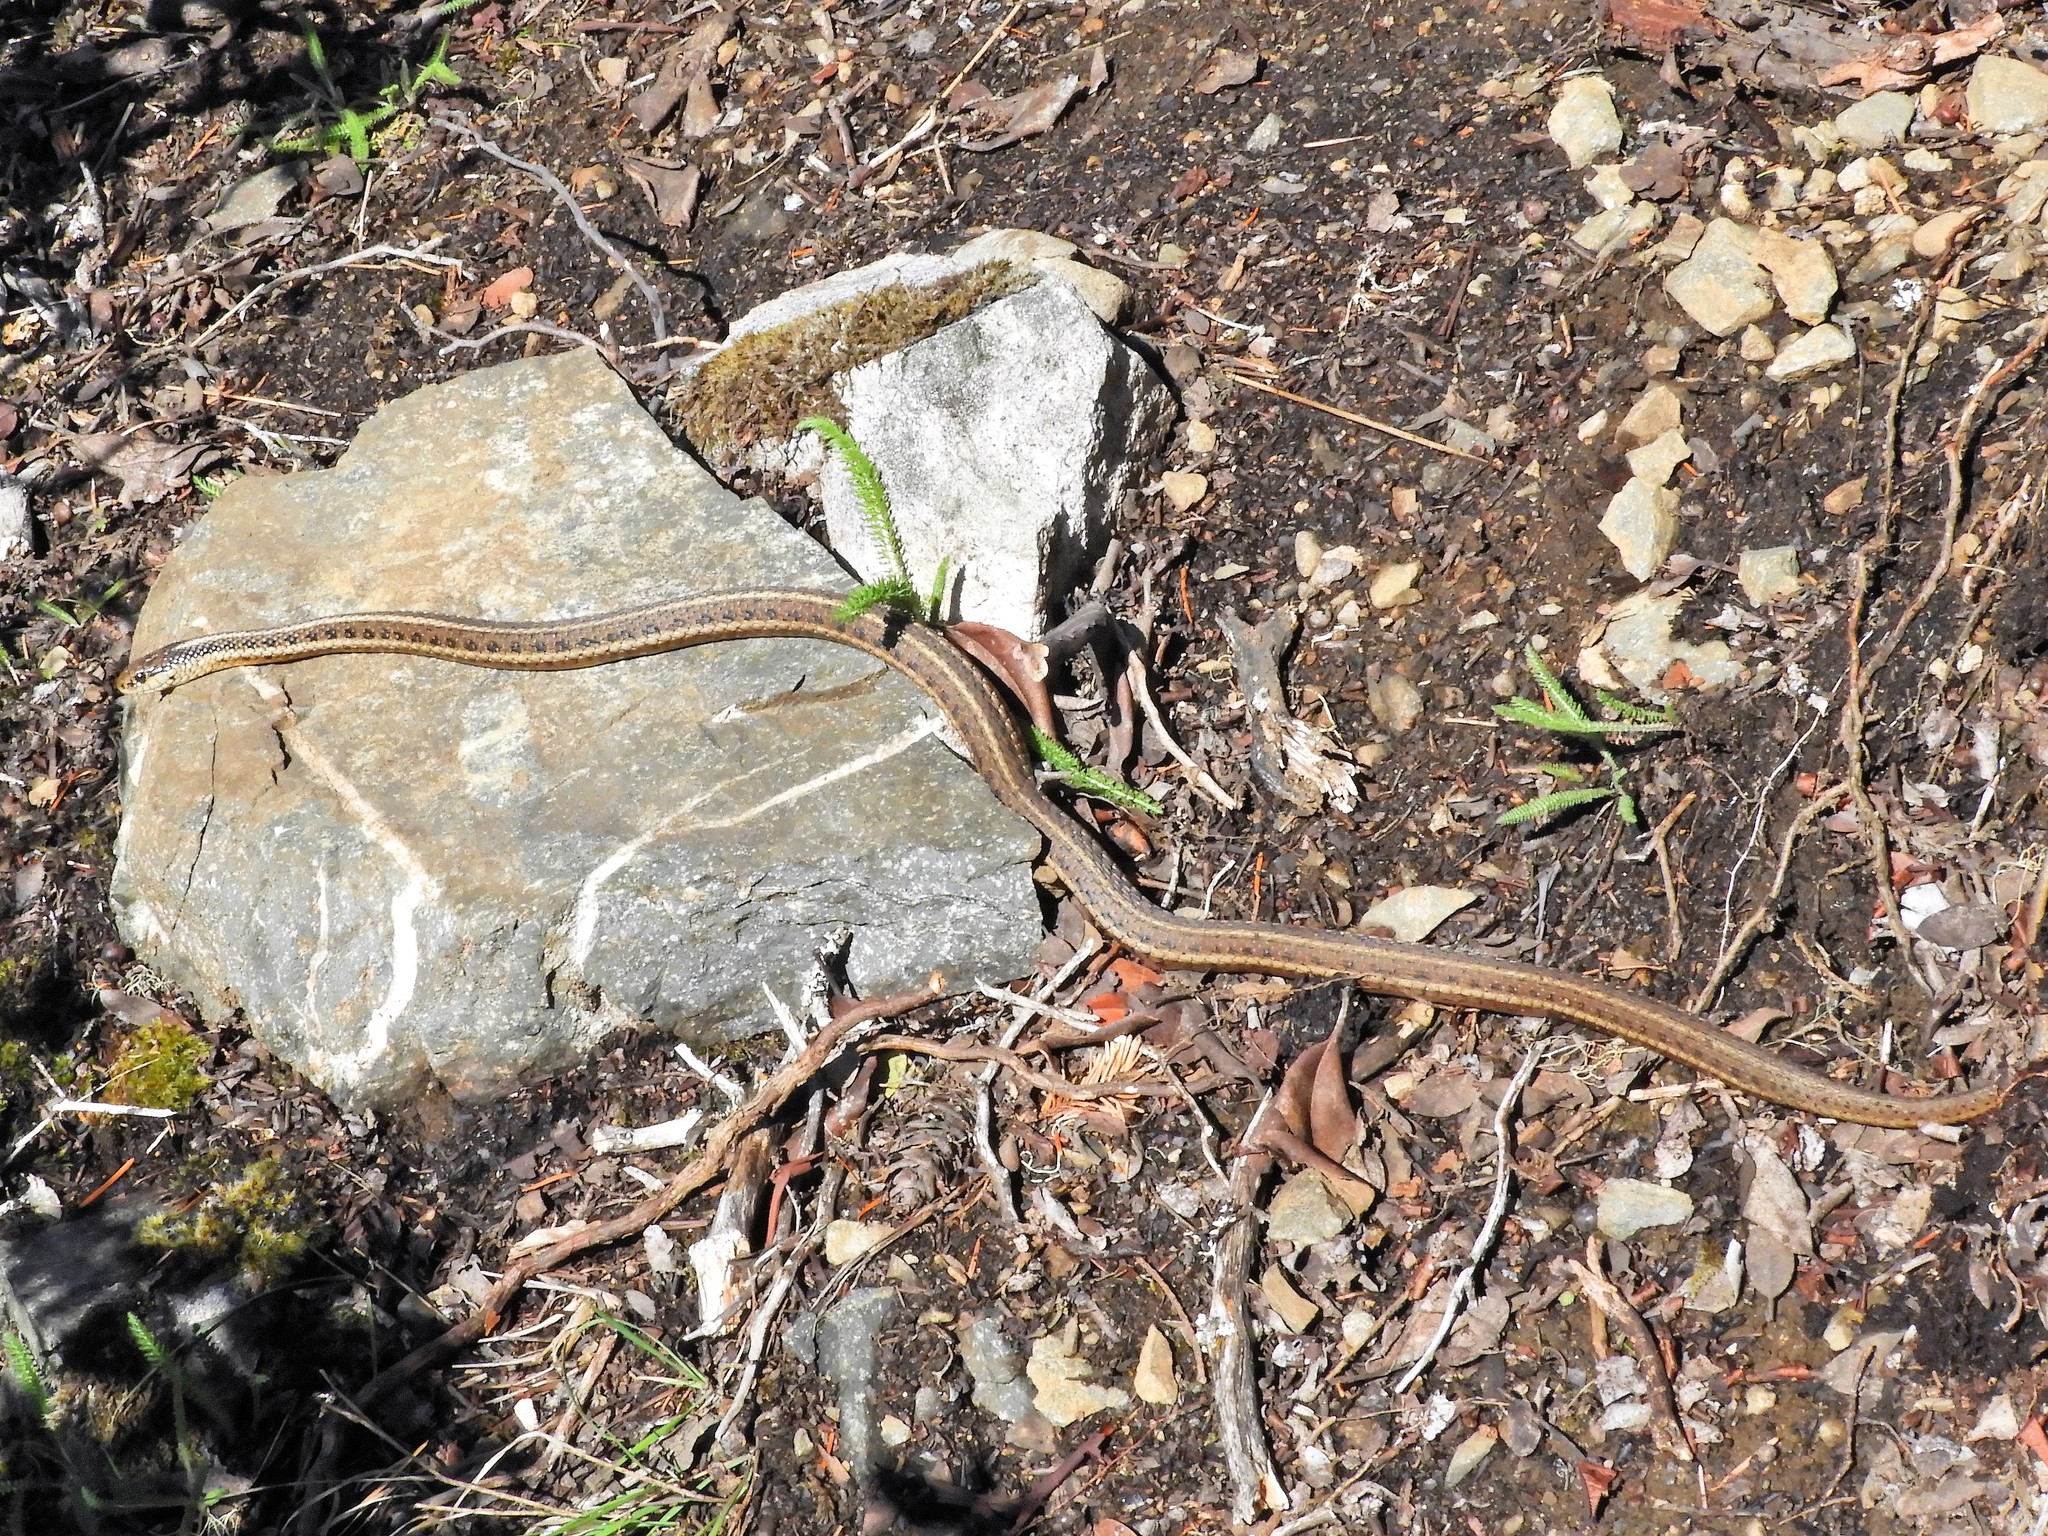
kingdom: Animalia
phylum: Chordata
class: Squamata
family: Colubridae
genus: Thamnophis
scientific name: Thamnophis ordinoides
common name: Northwestern garter snake
